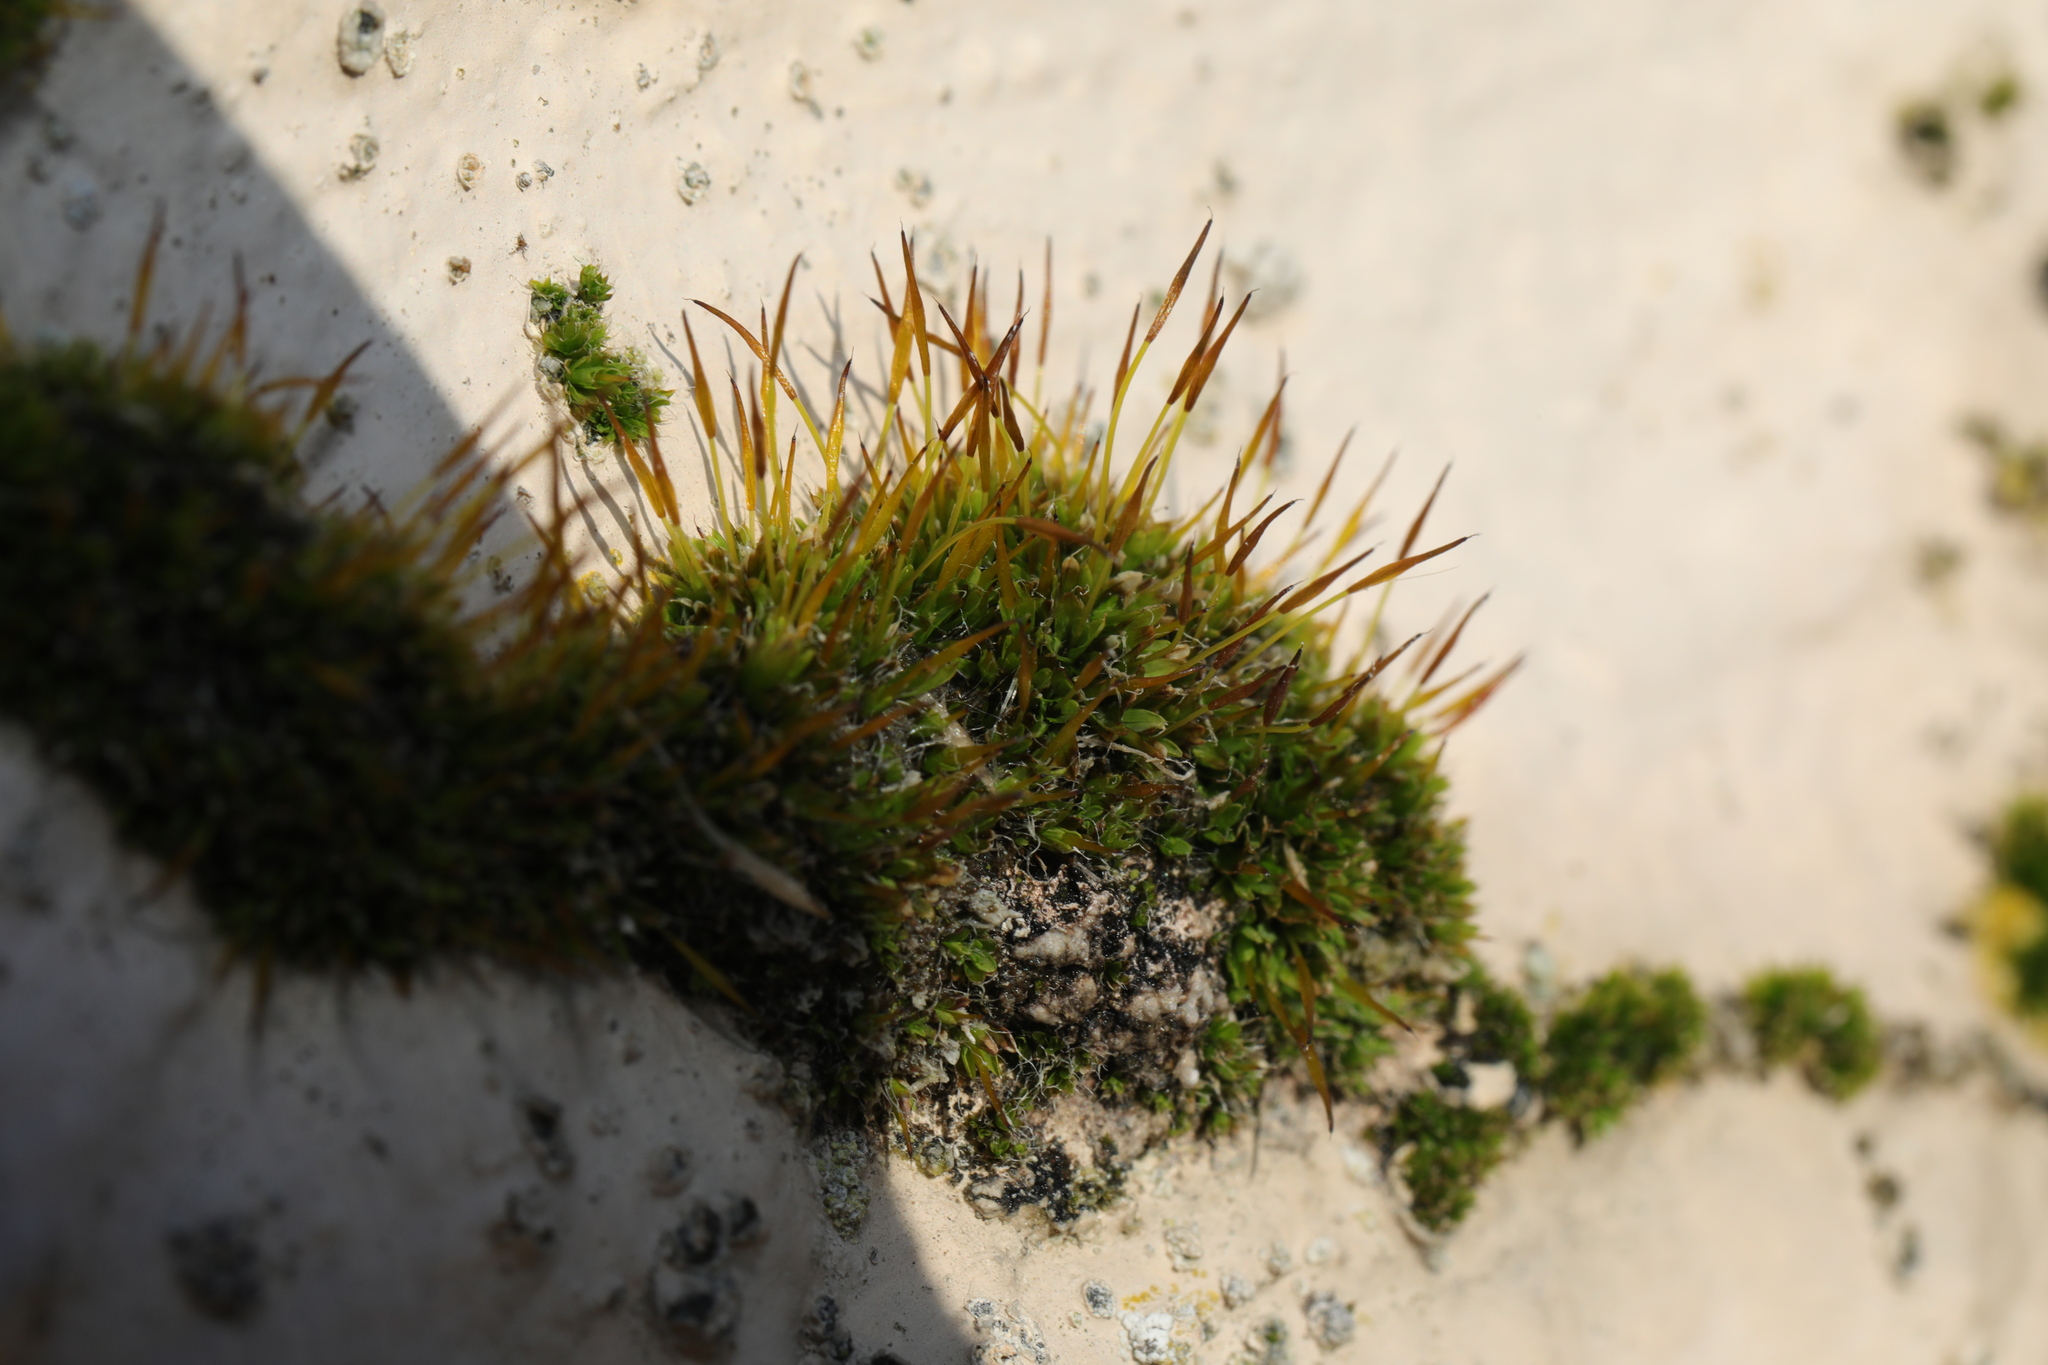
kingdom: Plantae
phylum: Bryophyta
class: Bryopsida
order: Pottiales
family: Pottiaceae
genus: Tortula
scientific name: Tortula muralis
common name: Wall screw-moss
